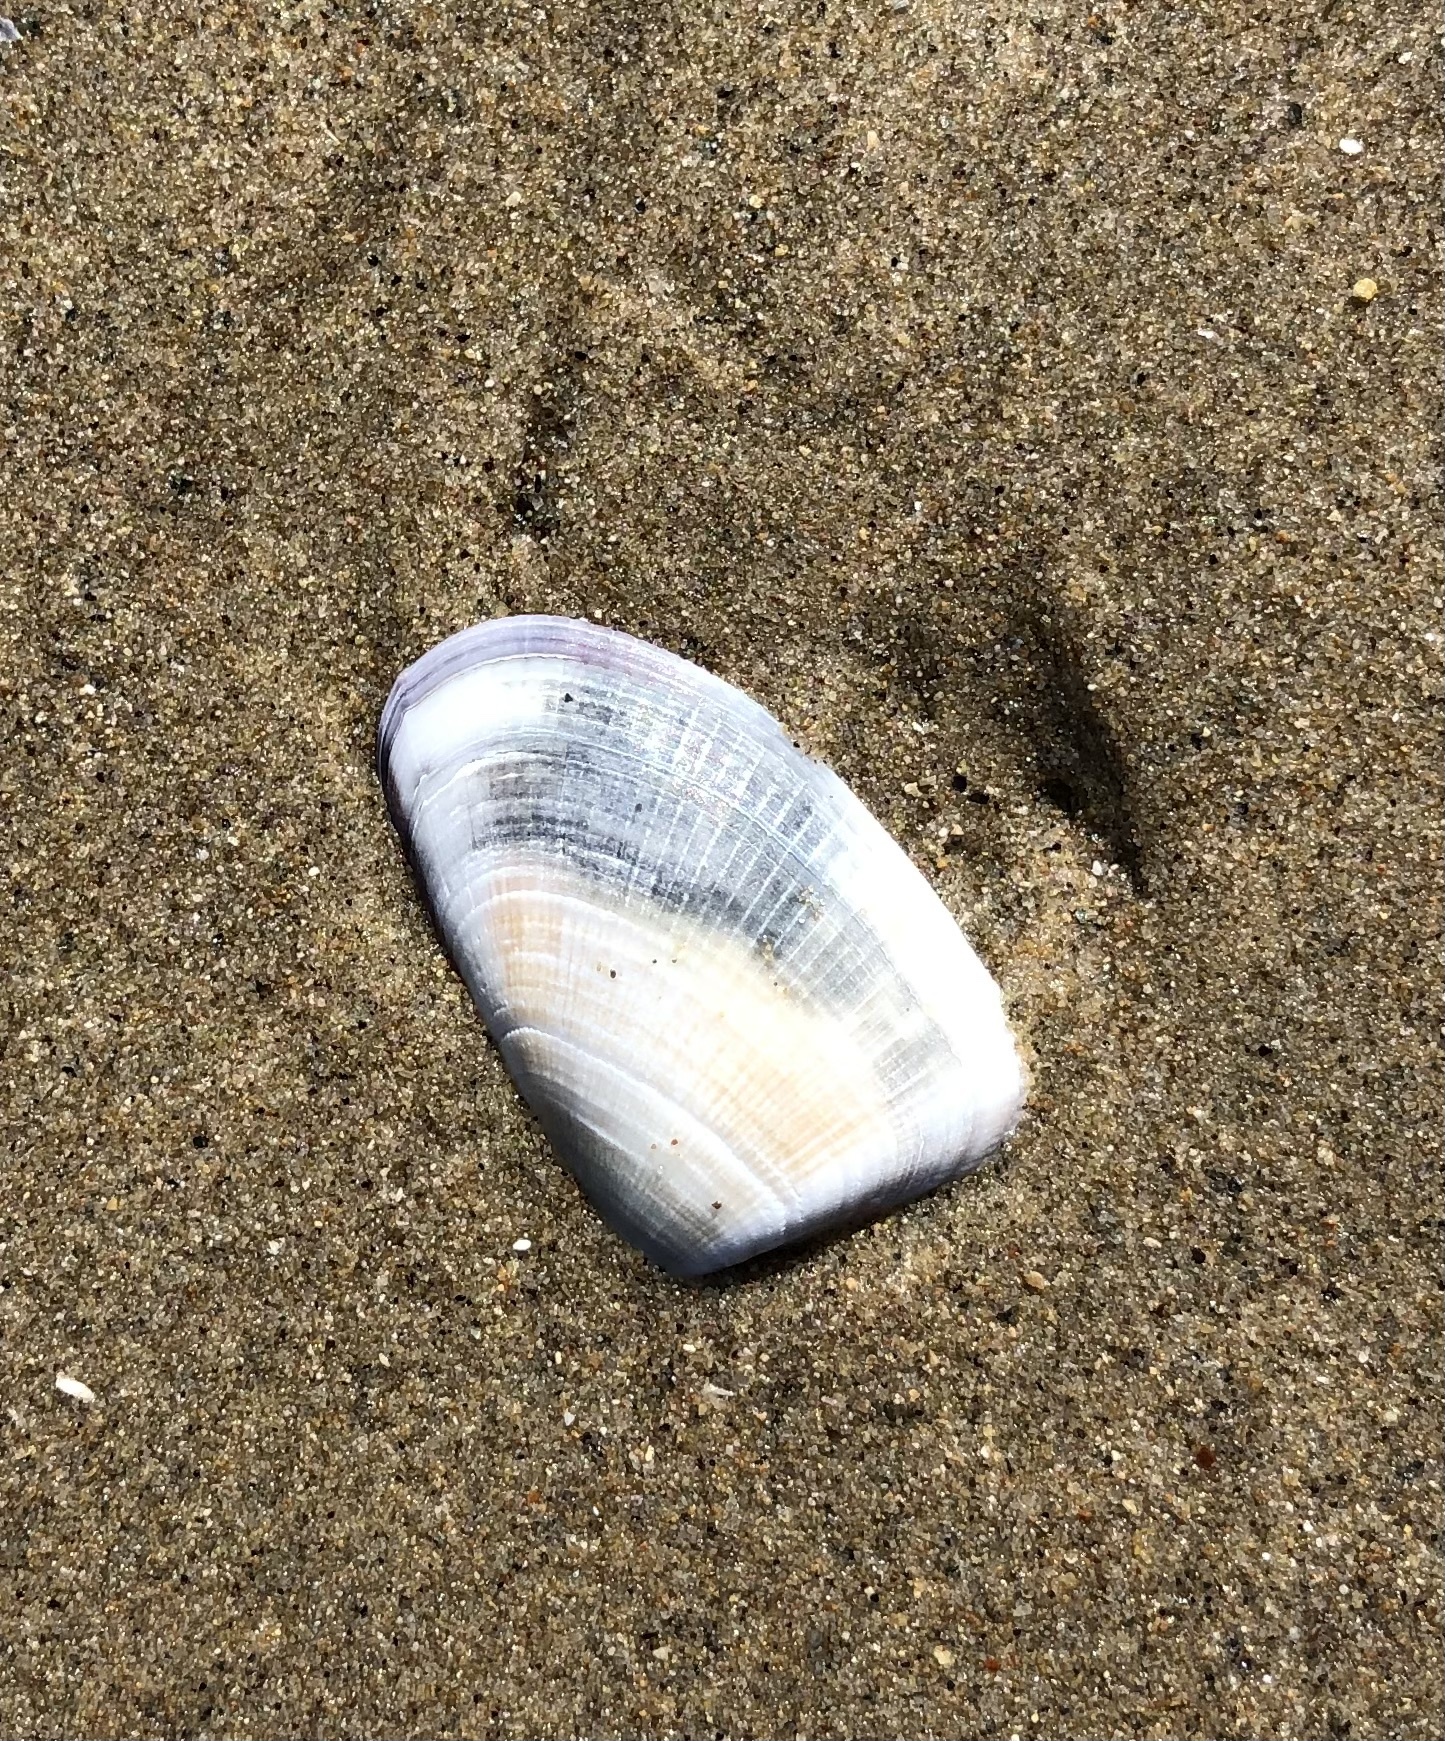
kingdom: Animalia
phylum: Mollusca
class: Bivalvia
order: Cardiida
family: Donacidae
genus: Donax
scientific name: Donax gouldii
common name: Gould beanclam
